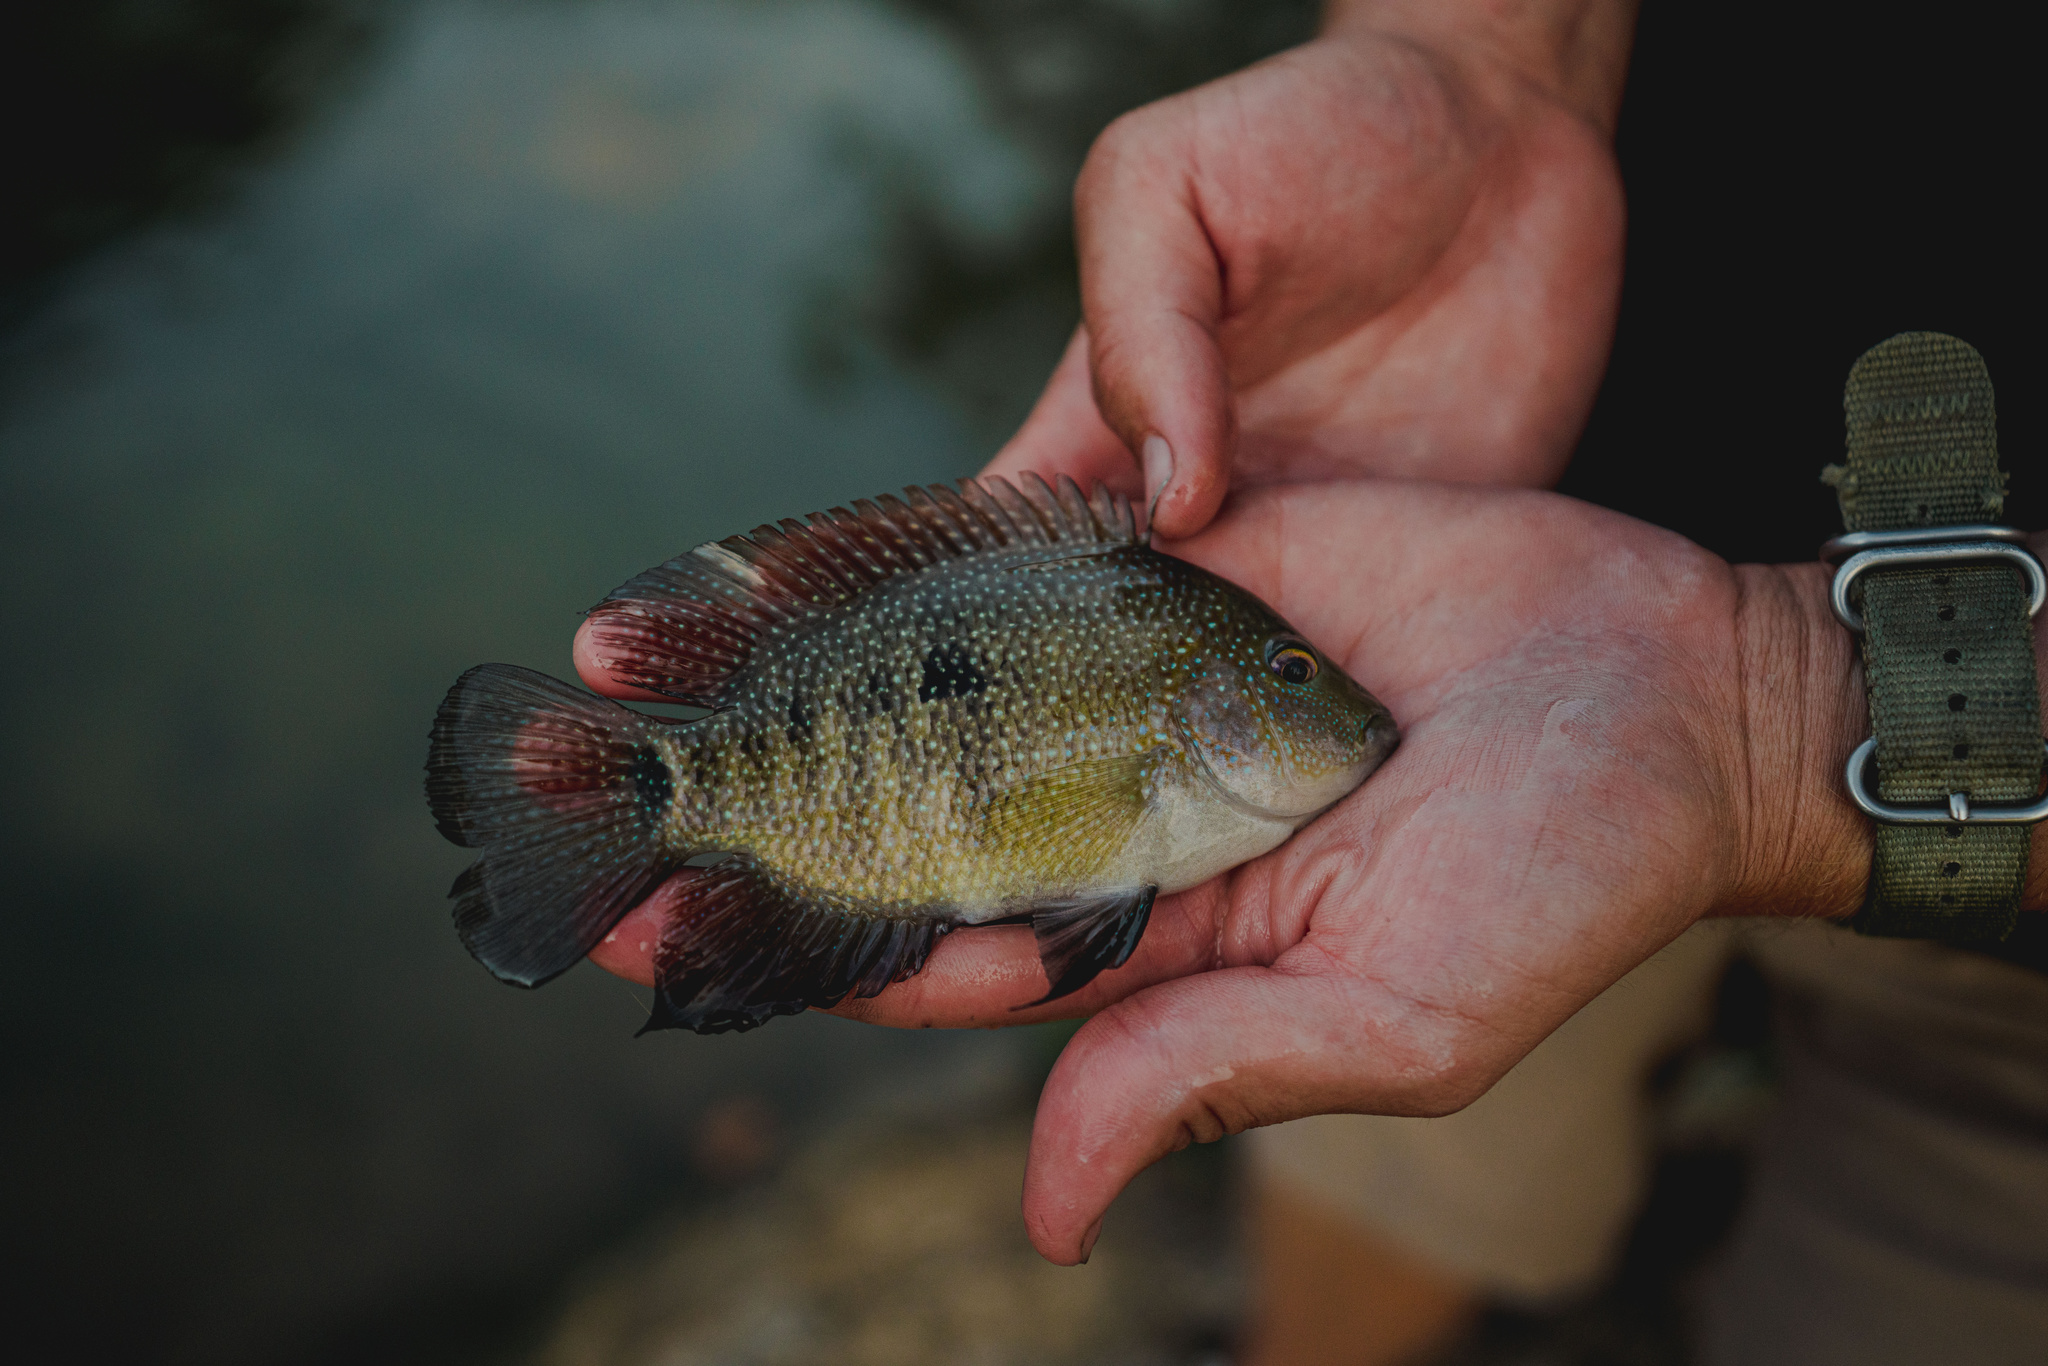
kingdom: Animalia
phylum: Chordata
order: Perciformes
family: Cichlidae
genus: Herichthys
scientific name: Herichthys cyanoguttatus
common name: Rio grande cichlid
